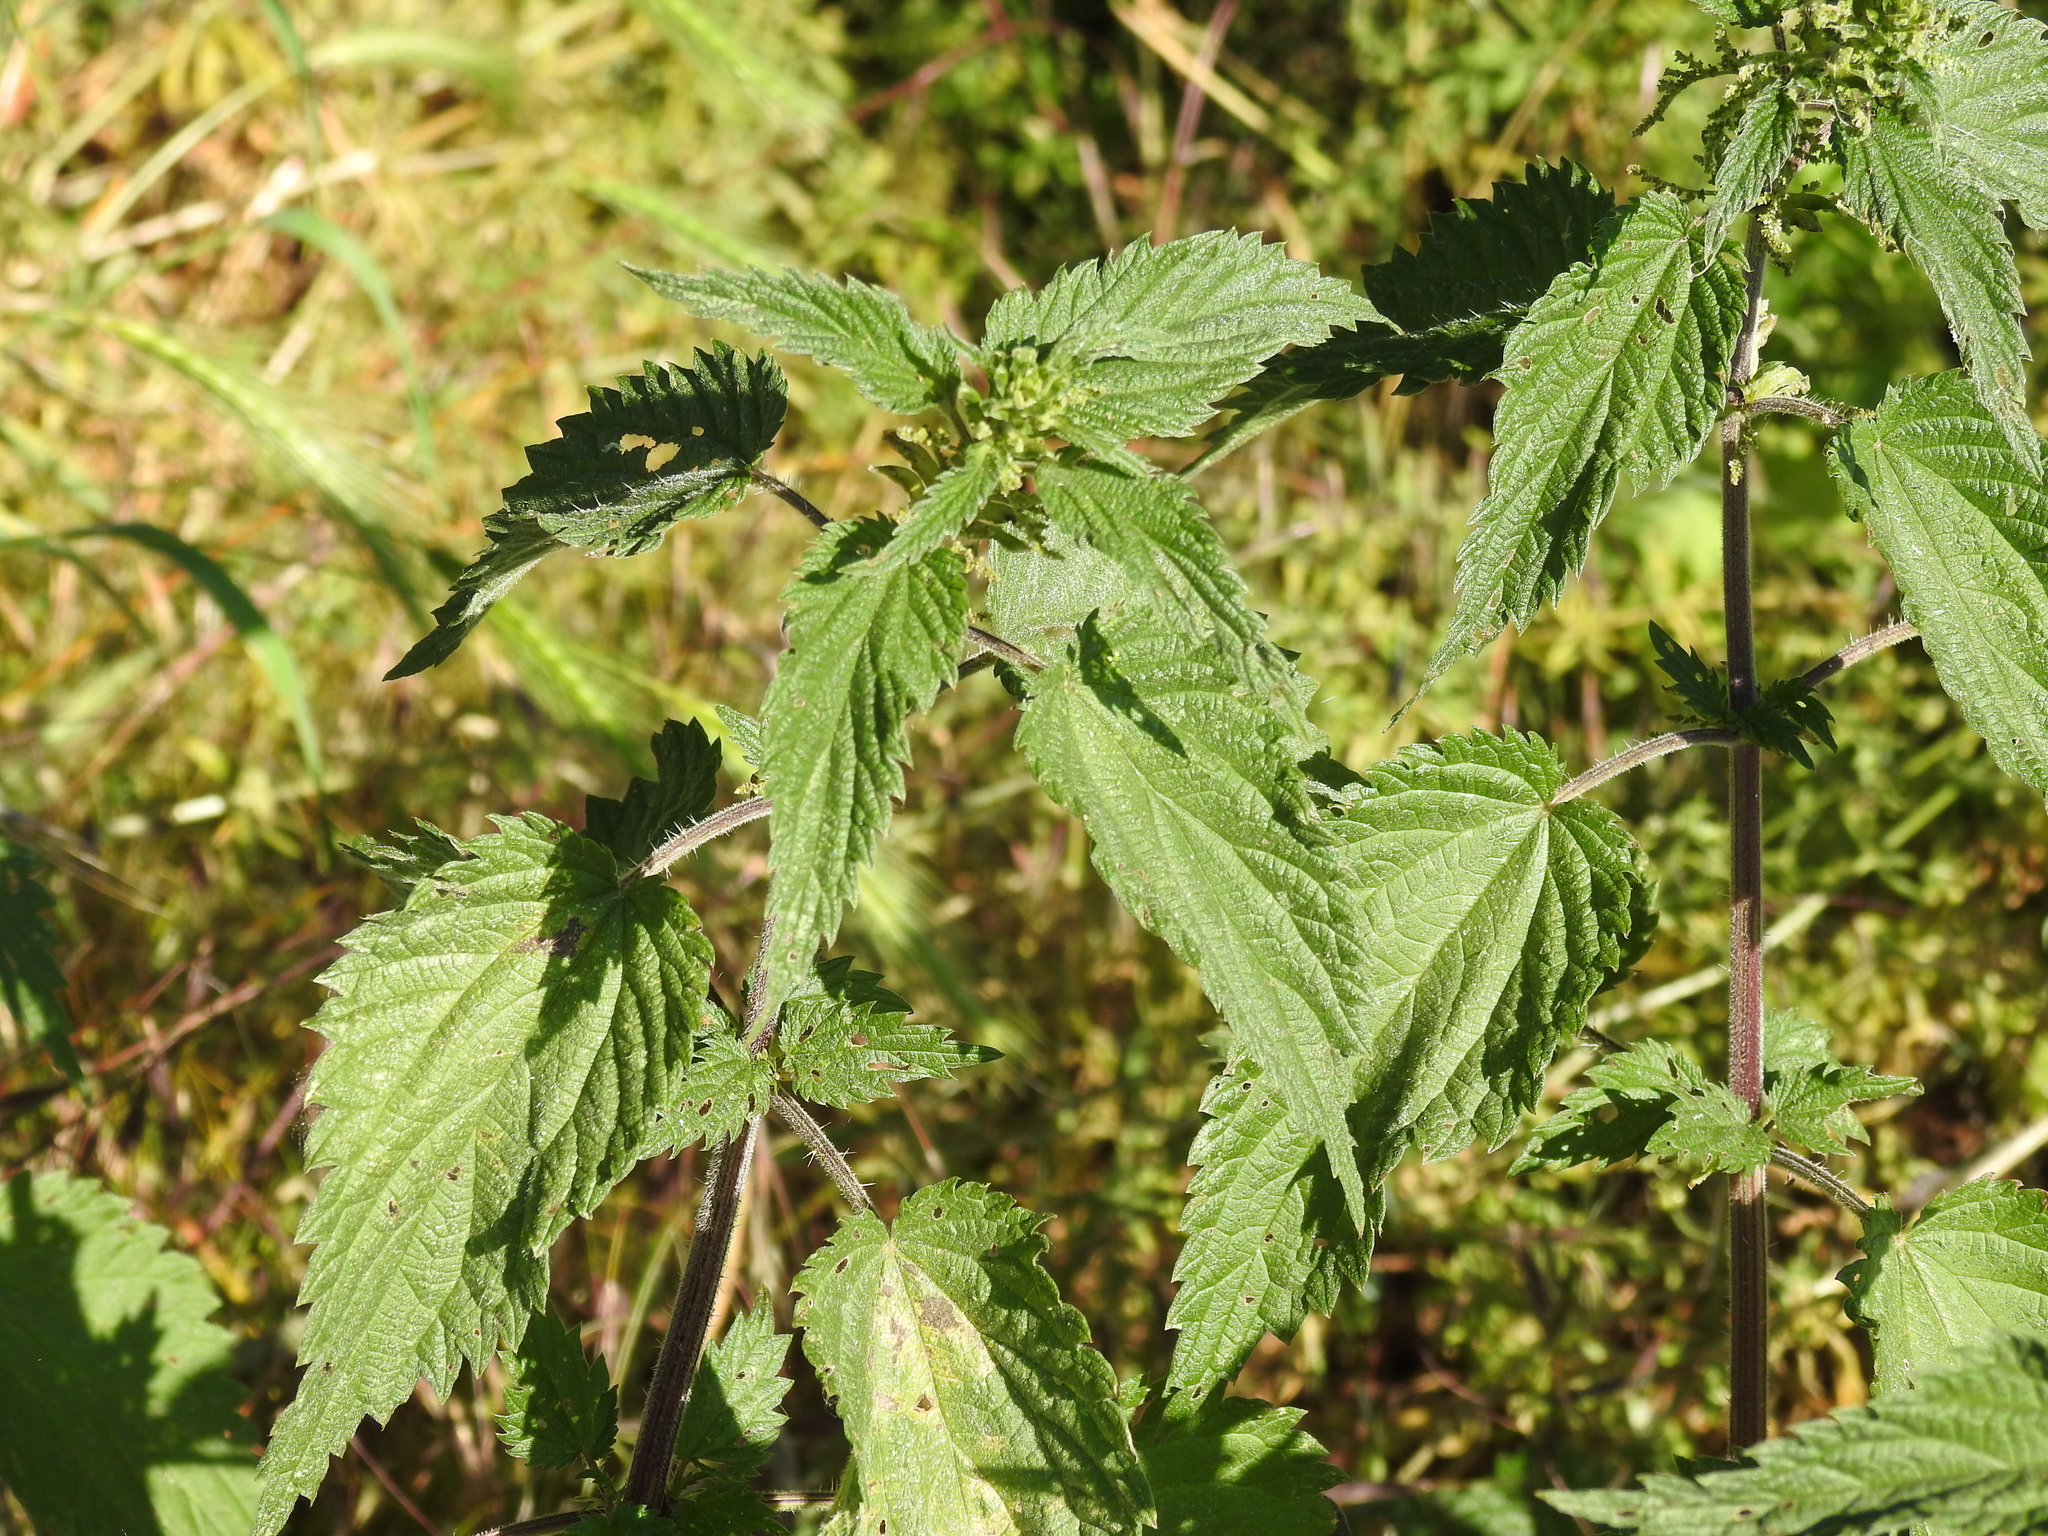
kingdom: Plantae
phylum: Tracheophyta
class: Magnoliopsida
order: Rosales
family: Urticaceae
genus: Urtica
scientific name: Urtica dioica
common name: Common nettle
